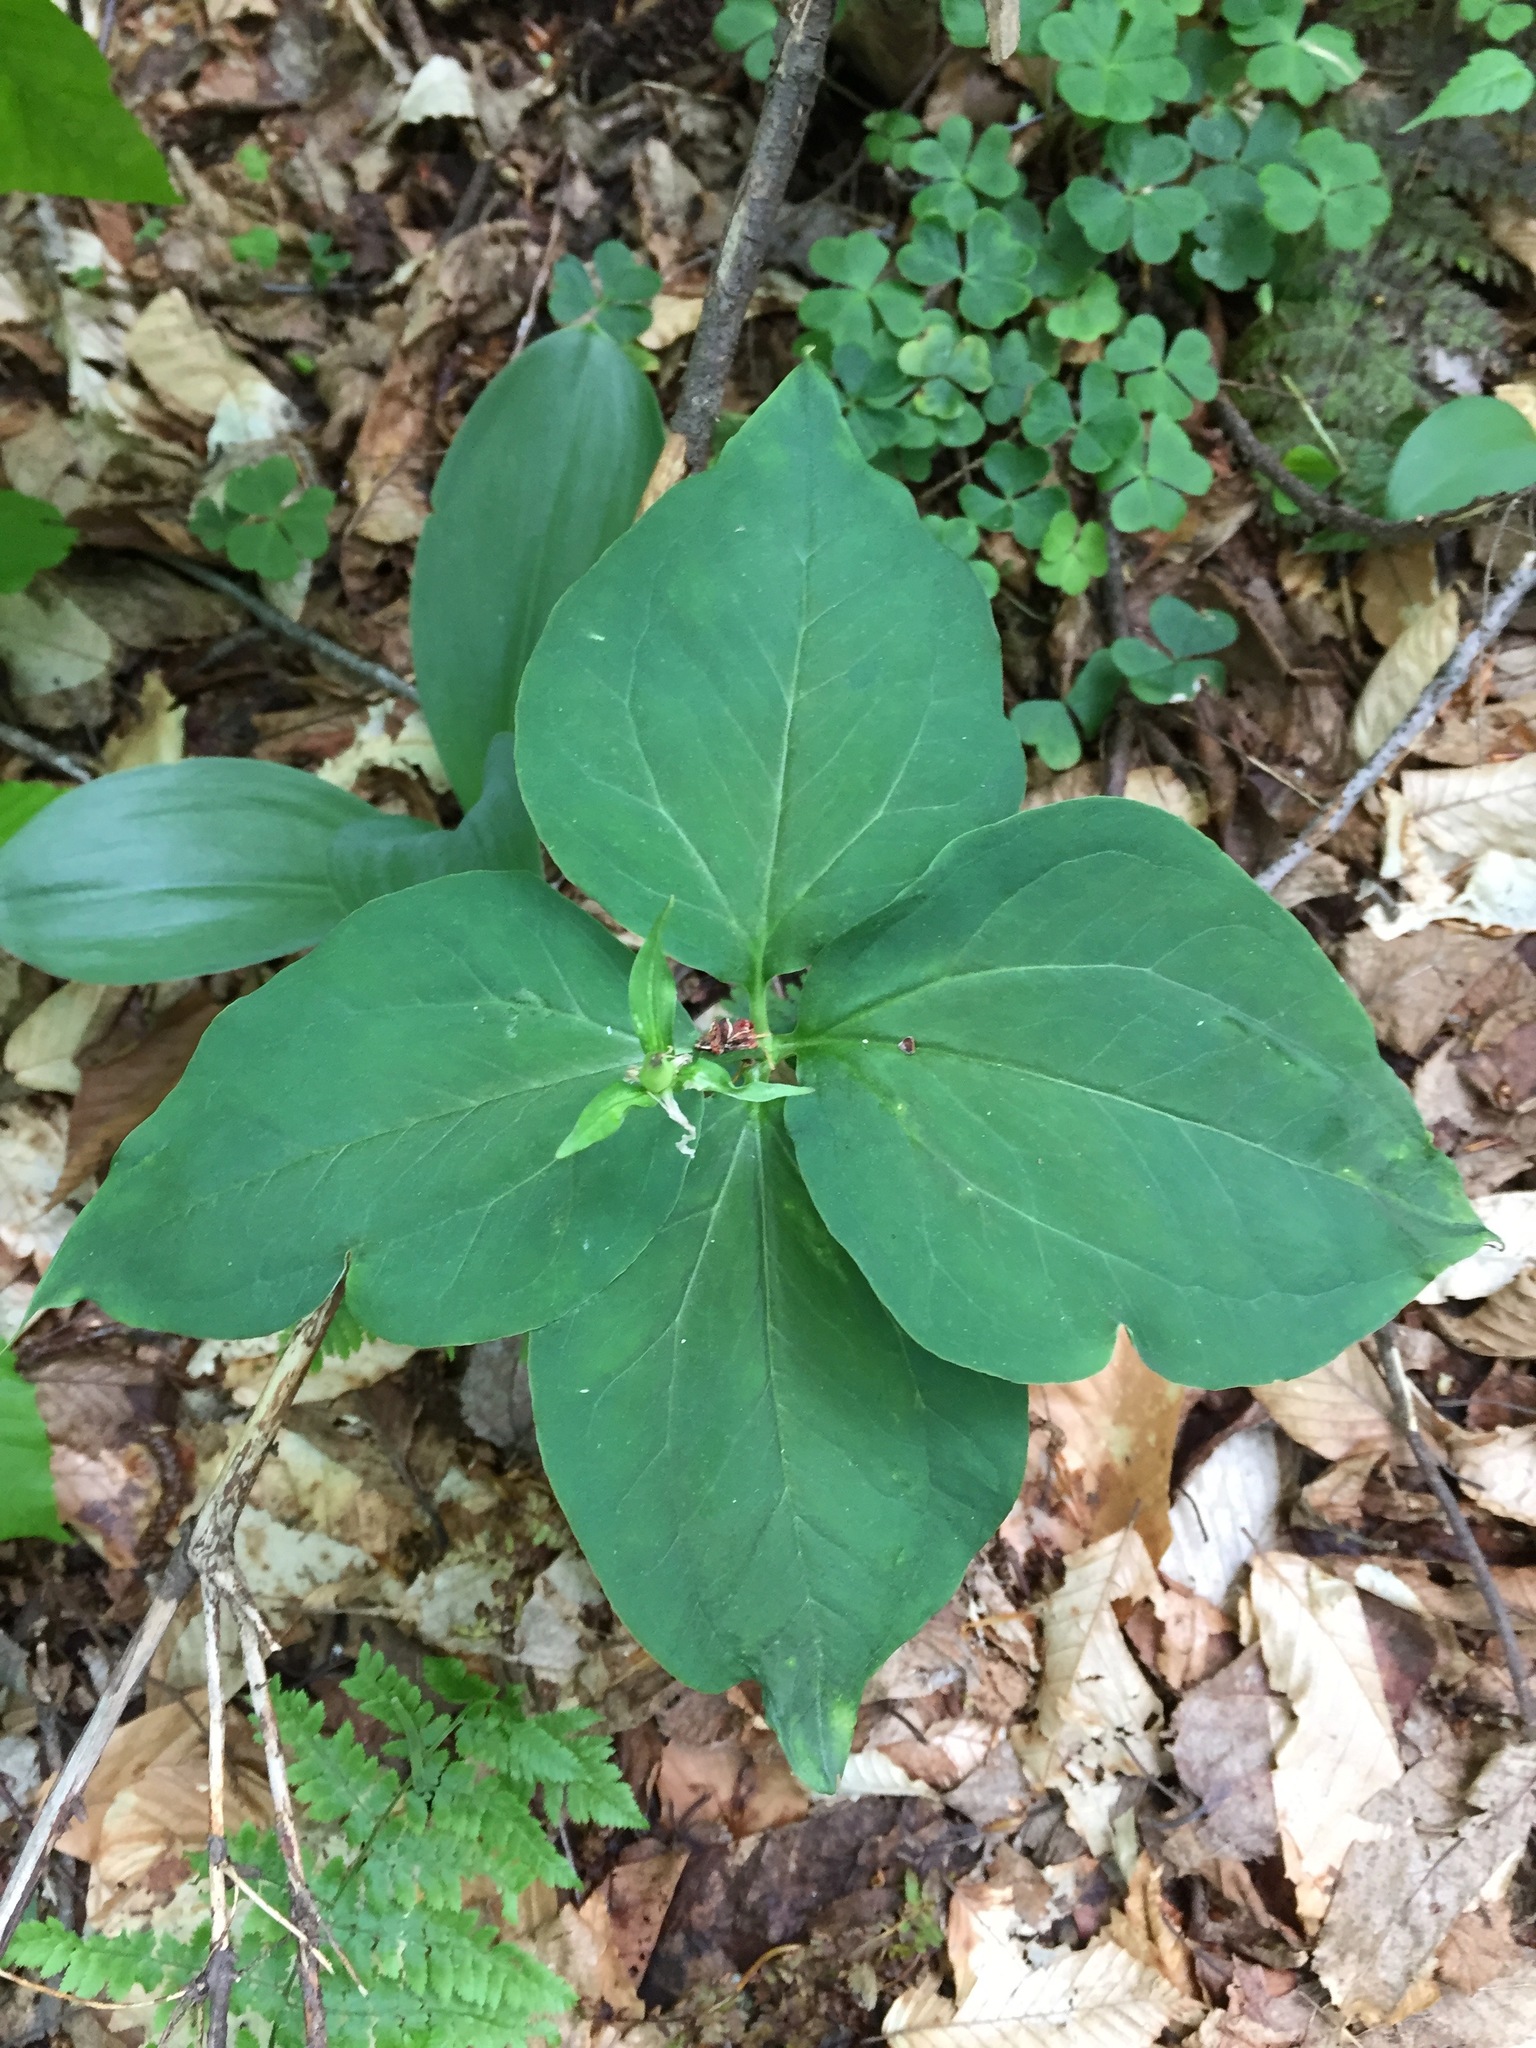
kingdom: Plantae
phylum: Tracheophyta
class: Liliopsida
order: Liliales
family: Melanthiaceae
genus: Trillium
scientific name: Trillium undulatum
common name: Paint trillium
